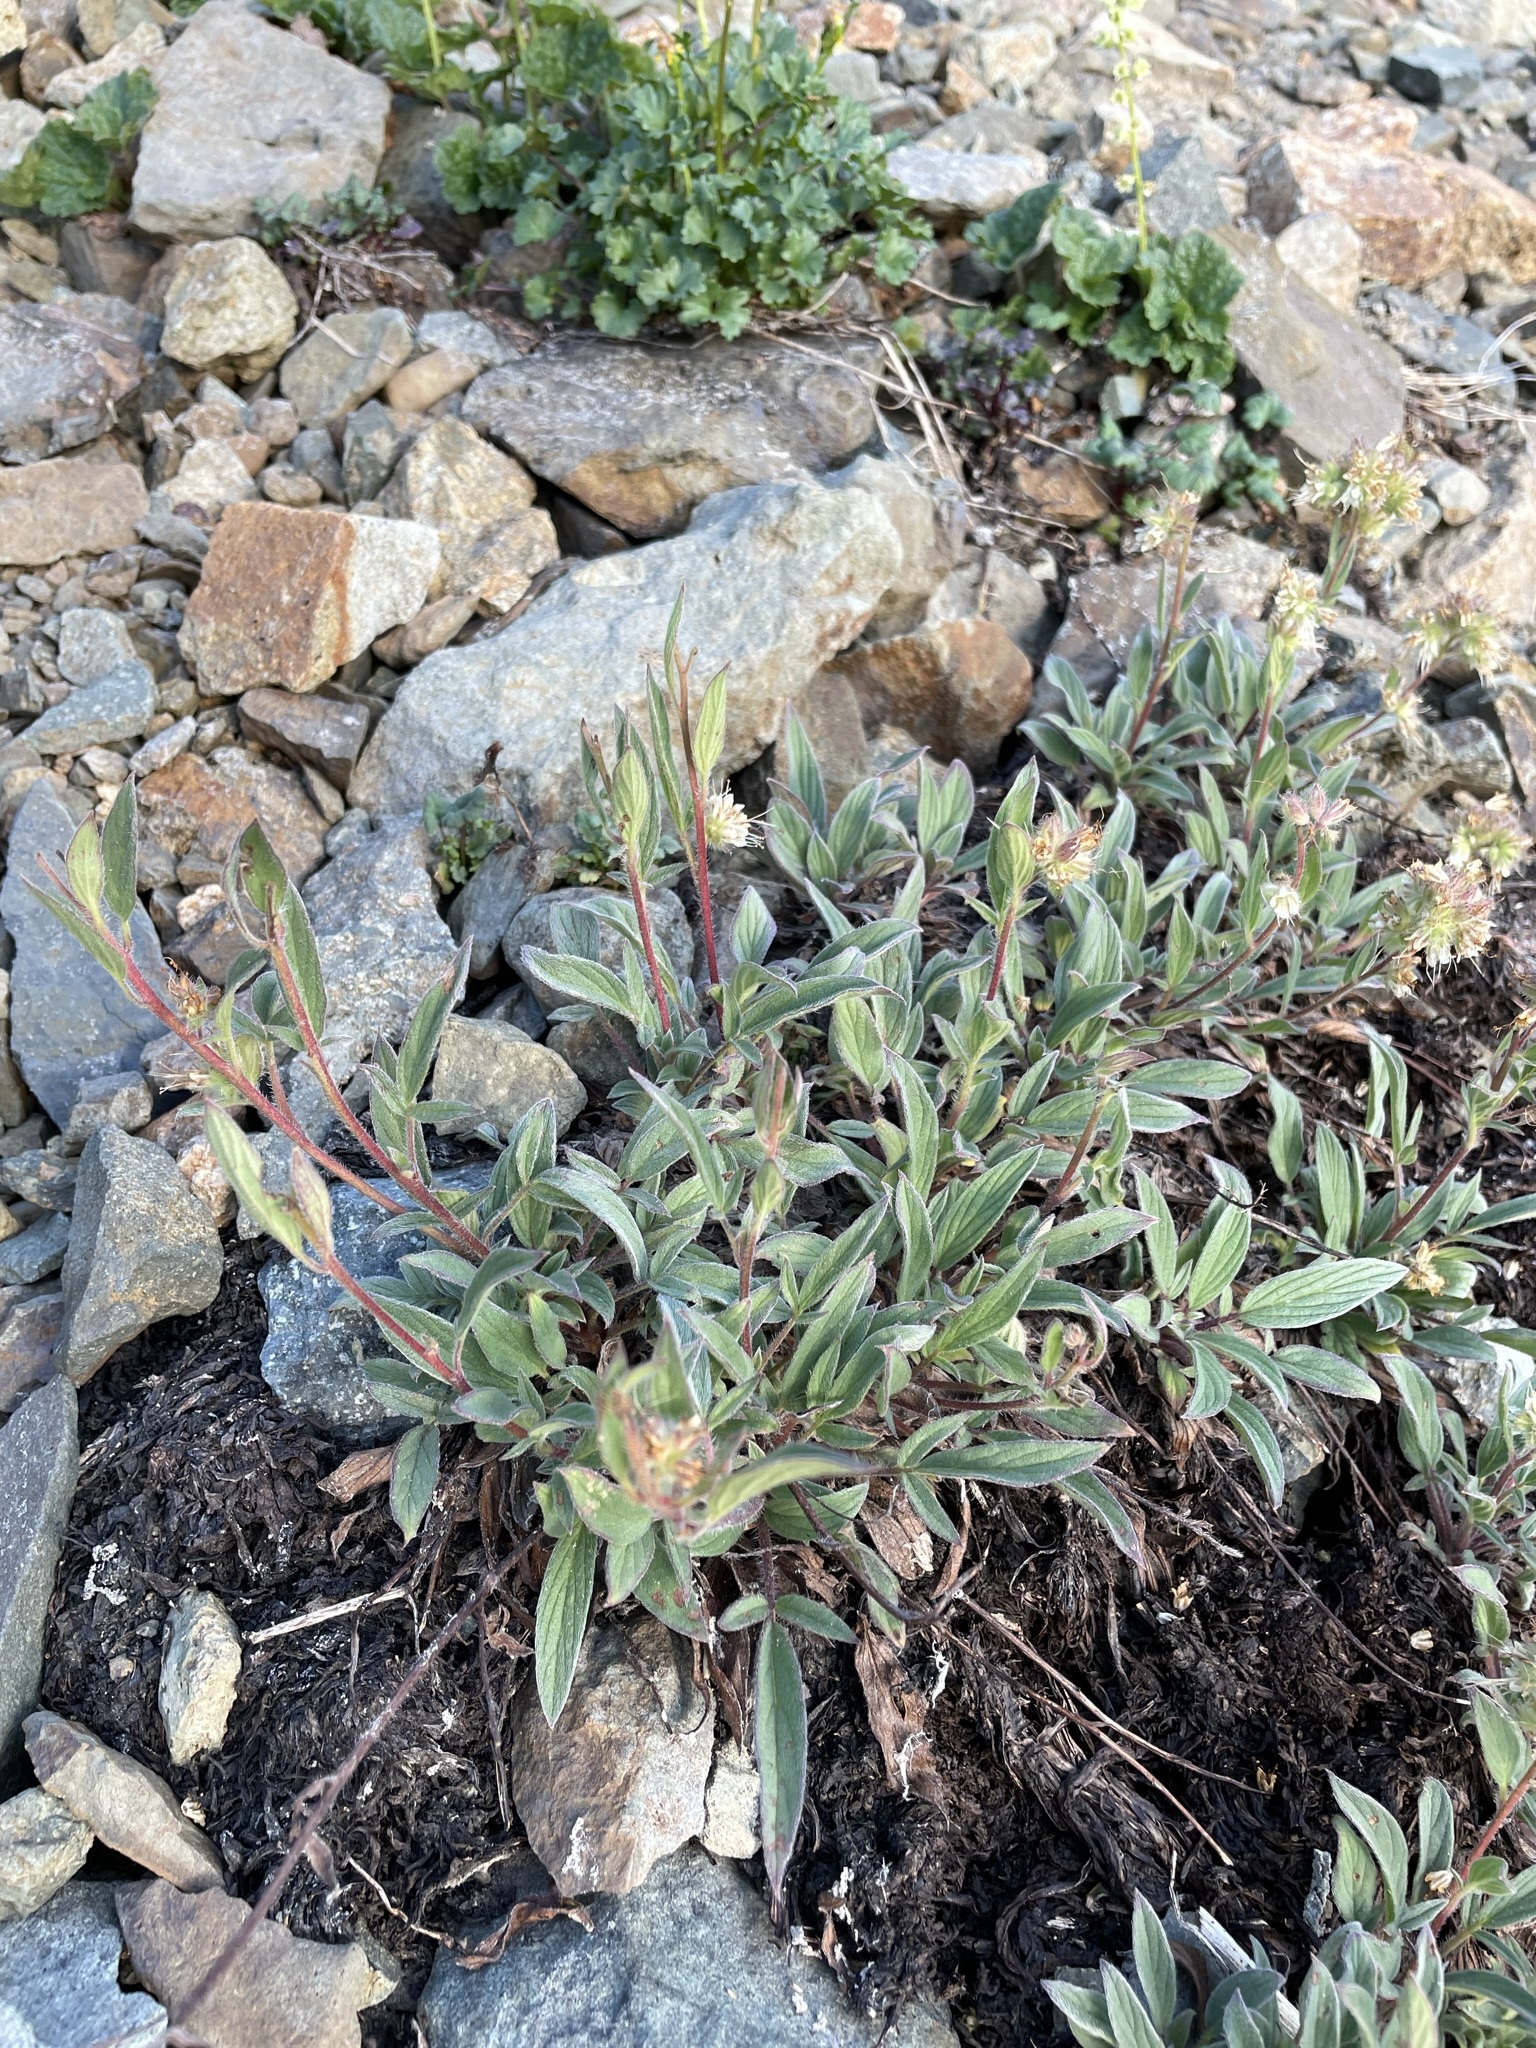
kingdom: Plantae
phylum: Tracheophyta
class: Magnoliopsida
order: Boraginales
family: Hydrophyllaceae
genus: Phacelia
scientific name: Phacelia hastata
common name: Silver-leaved phacelia
